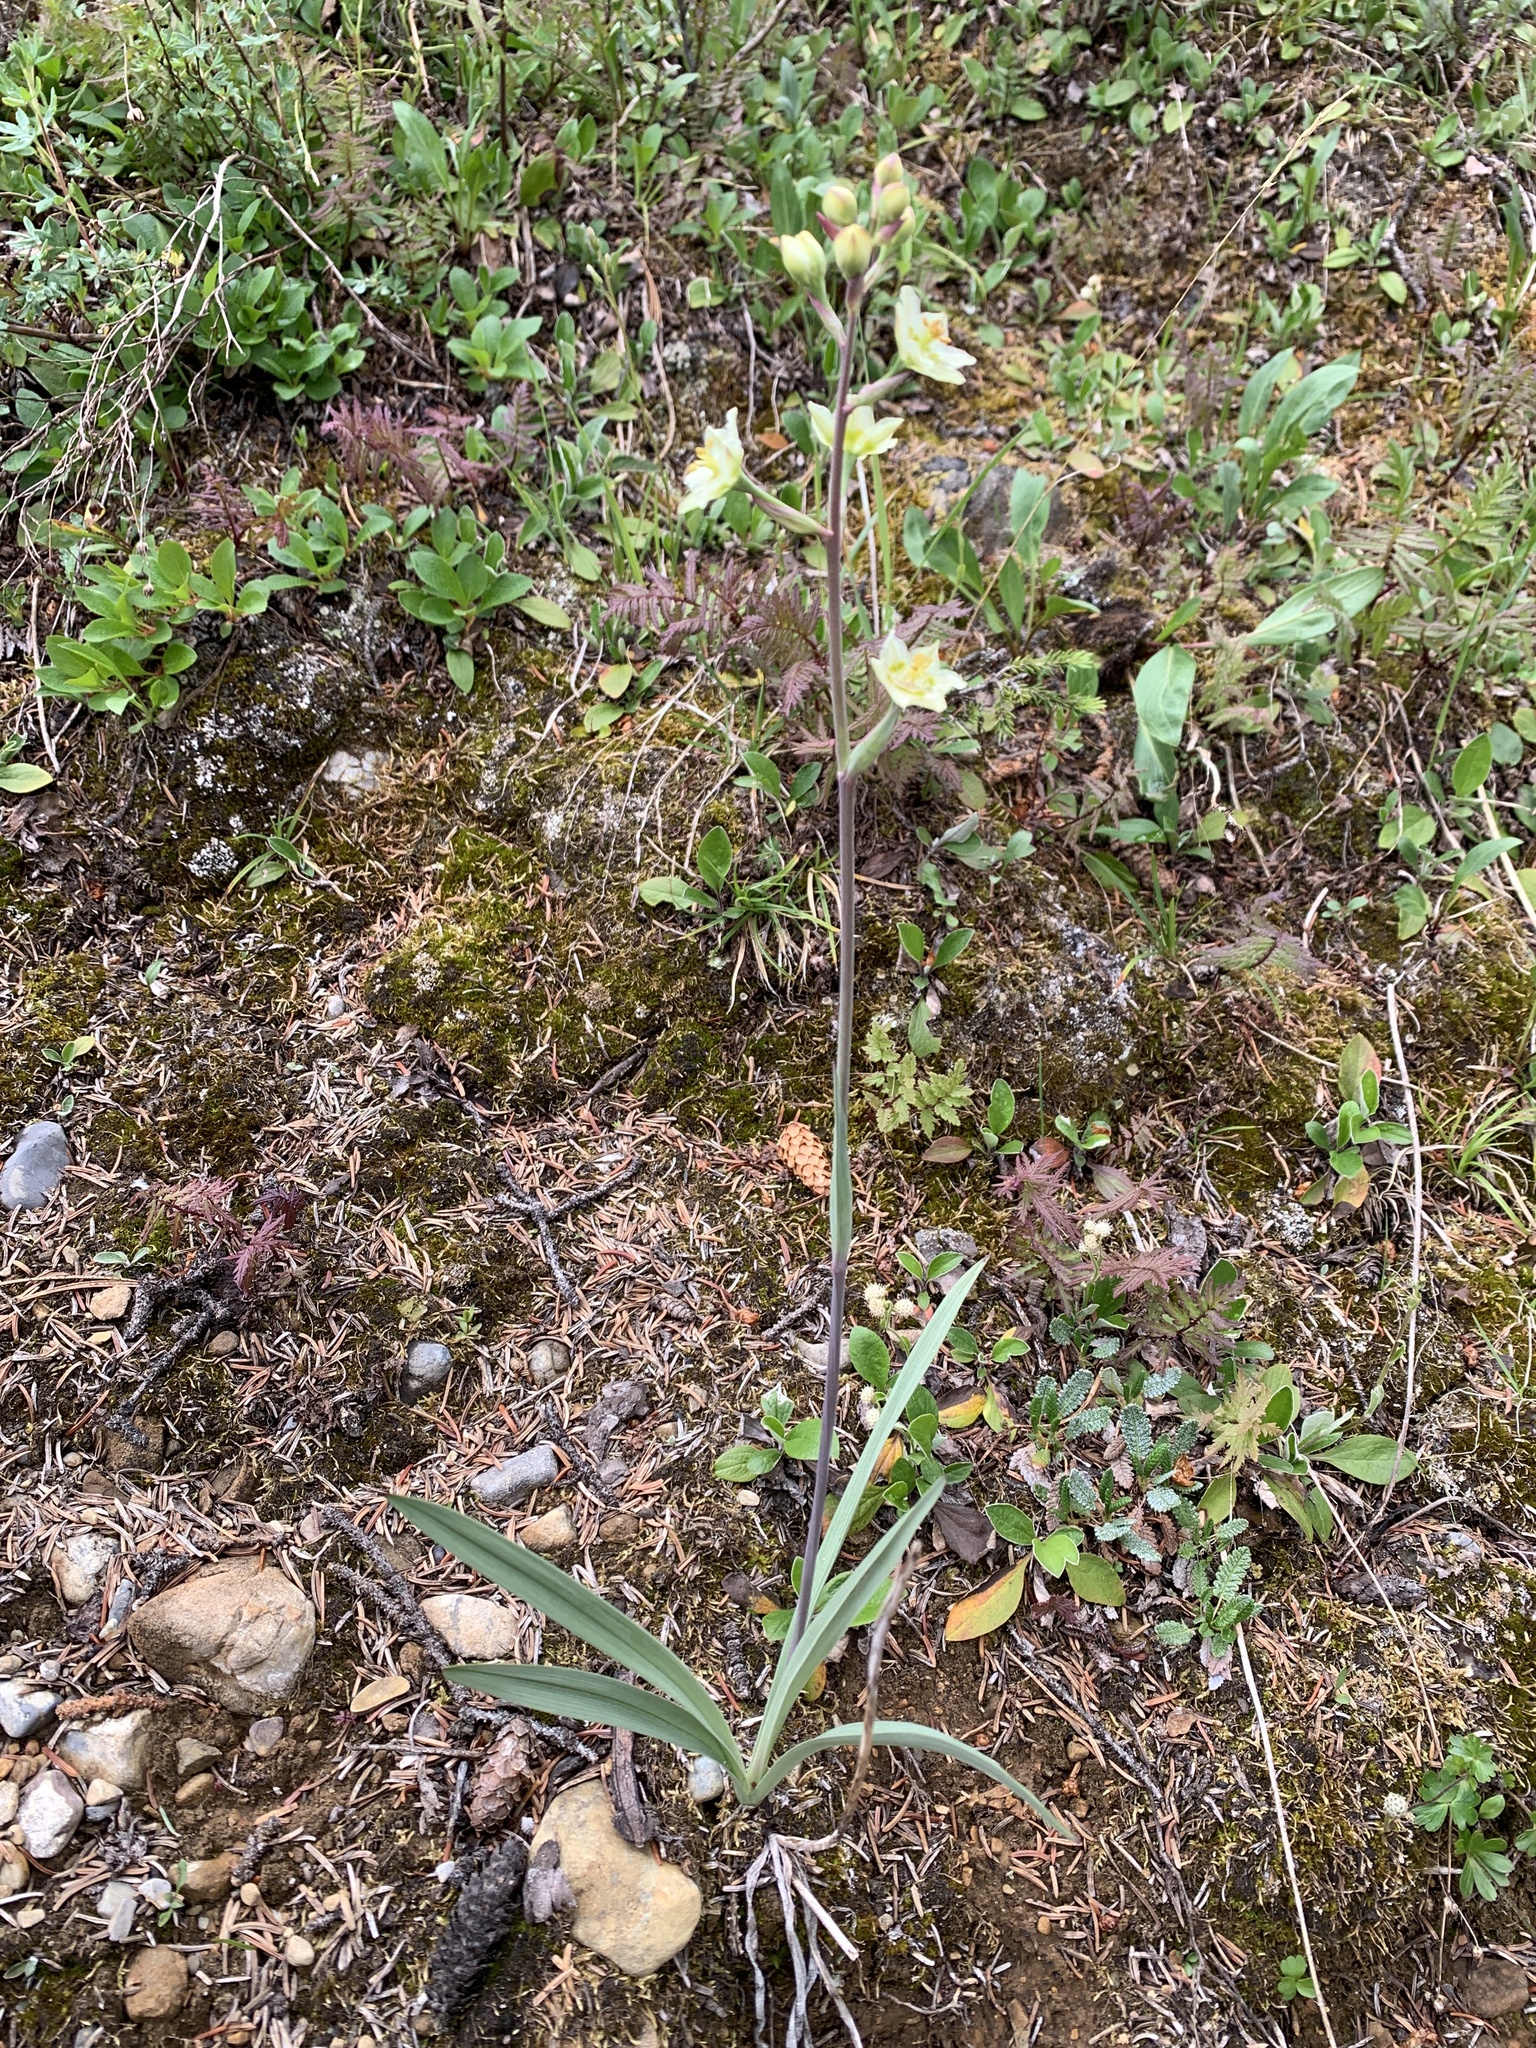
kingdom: Plantae
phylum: Tracheophyta
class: Liliopsida
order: Liliales
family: Melanthiaceae
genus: Anticlea
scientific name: Anticlea elegans
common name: Mountain death camas
